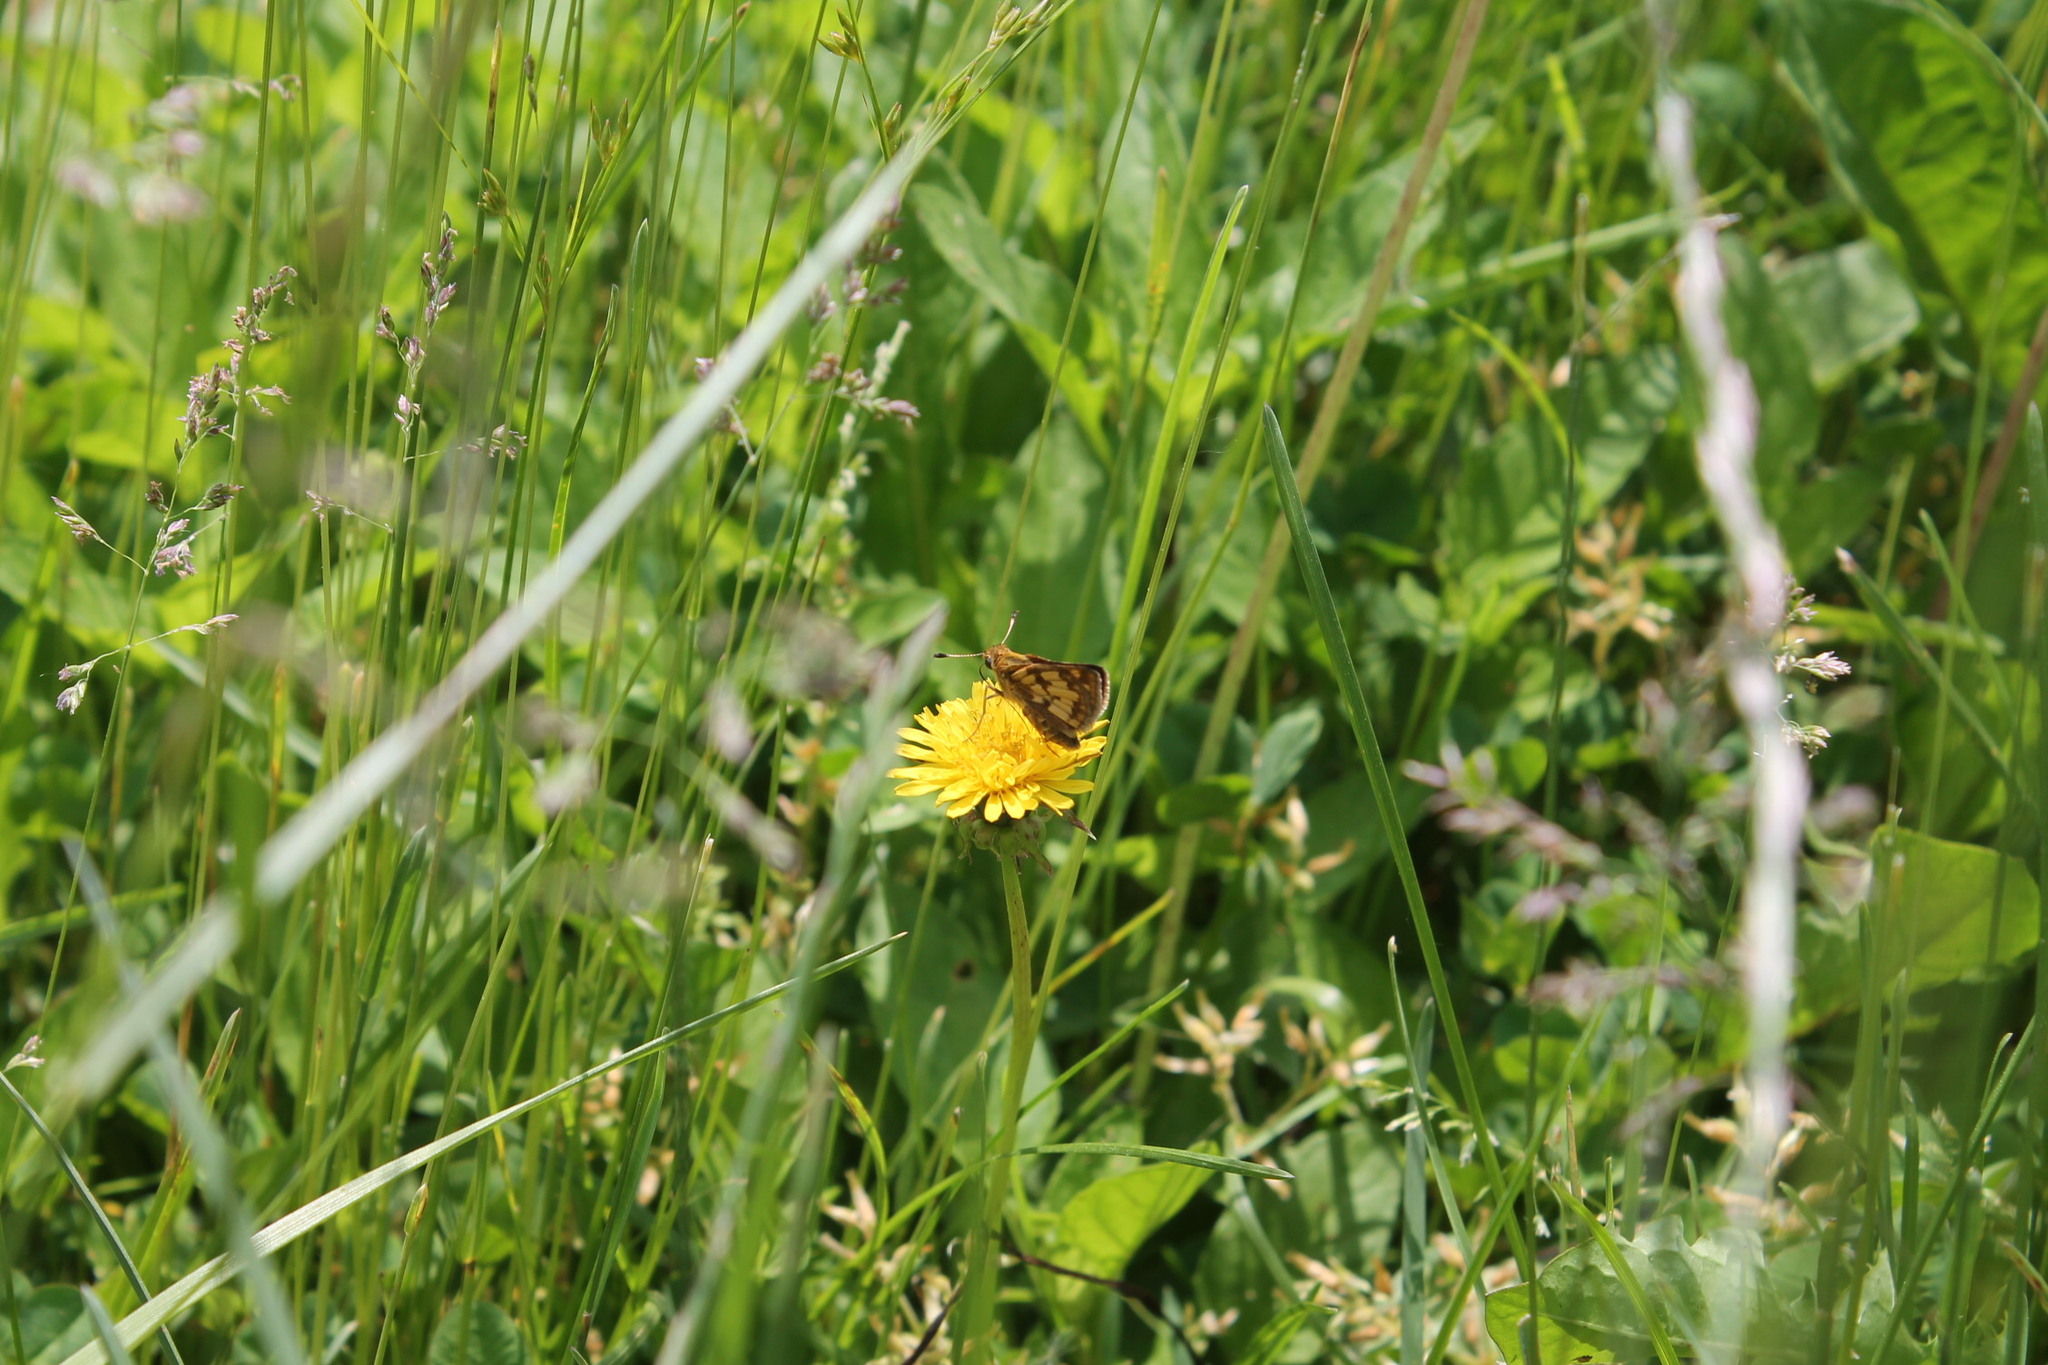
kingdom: Animalia
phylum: Arthropoda
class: Insecta
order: Lepidoptera
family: Hesperiidae
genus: Polites
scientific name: Polites coras
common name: Peck's skipper
